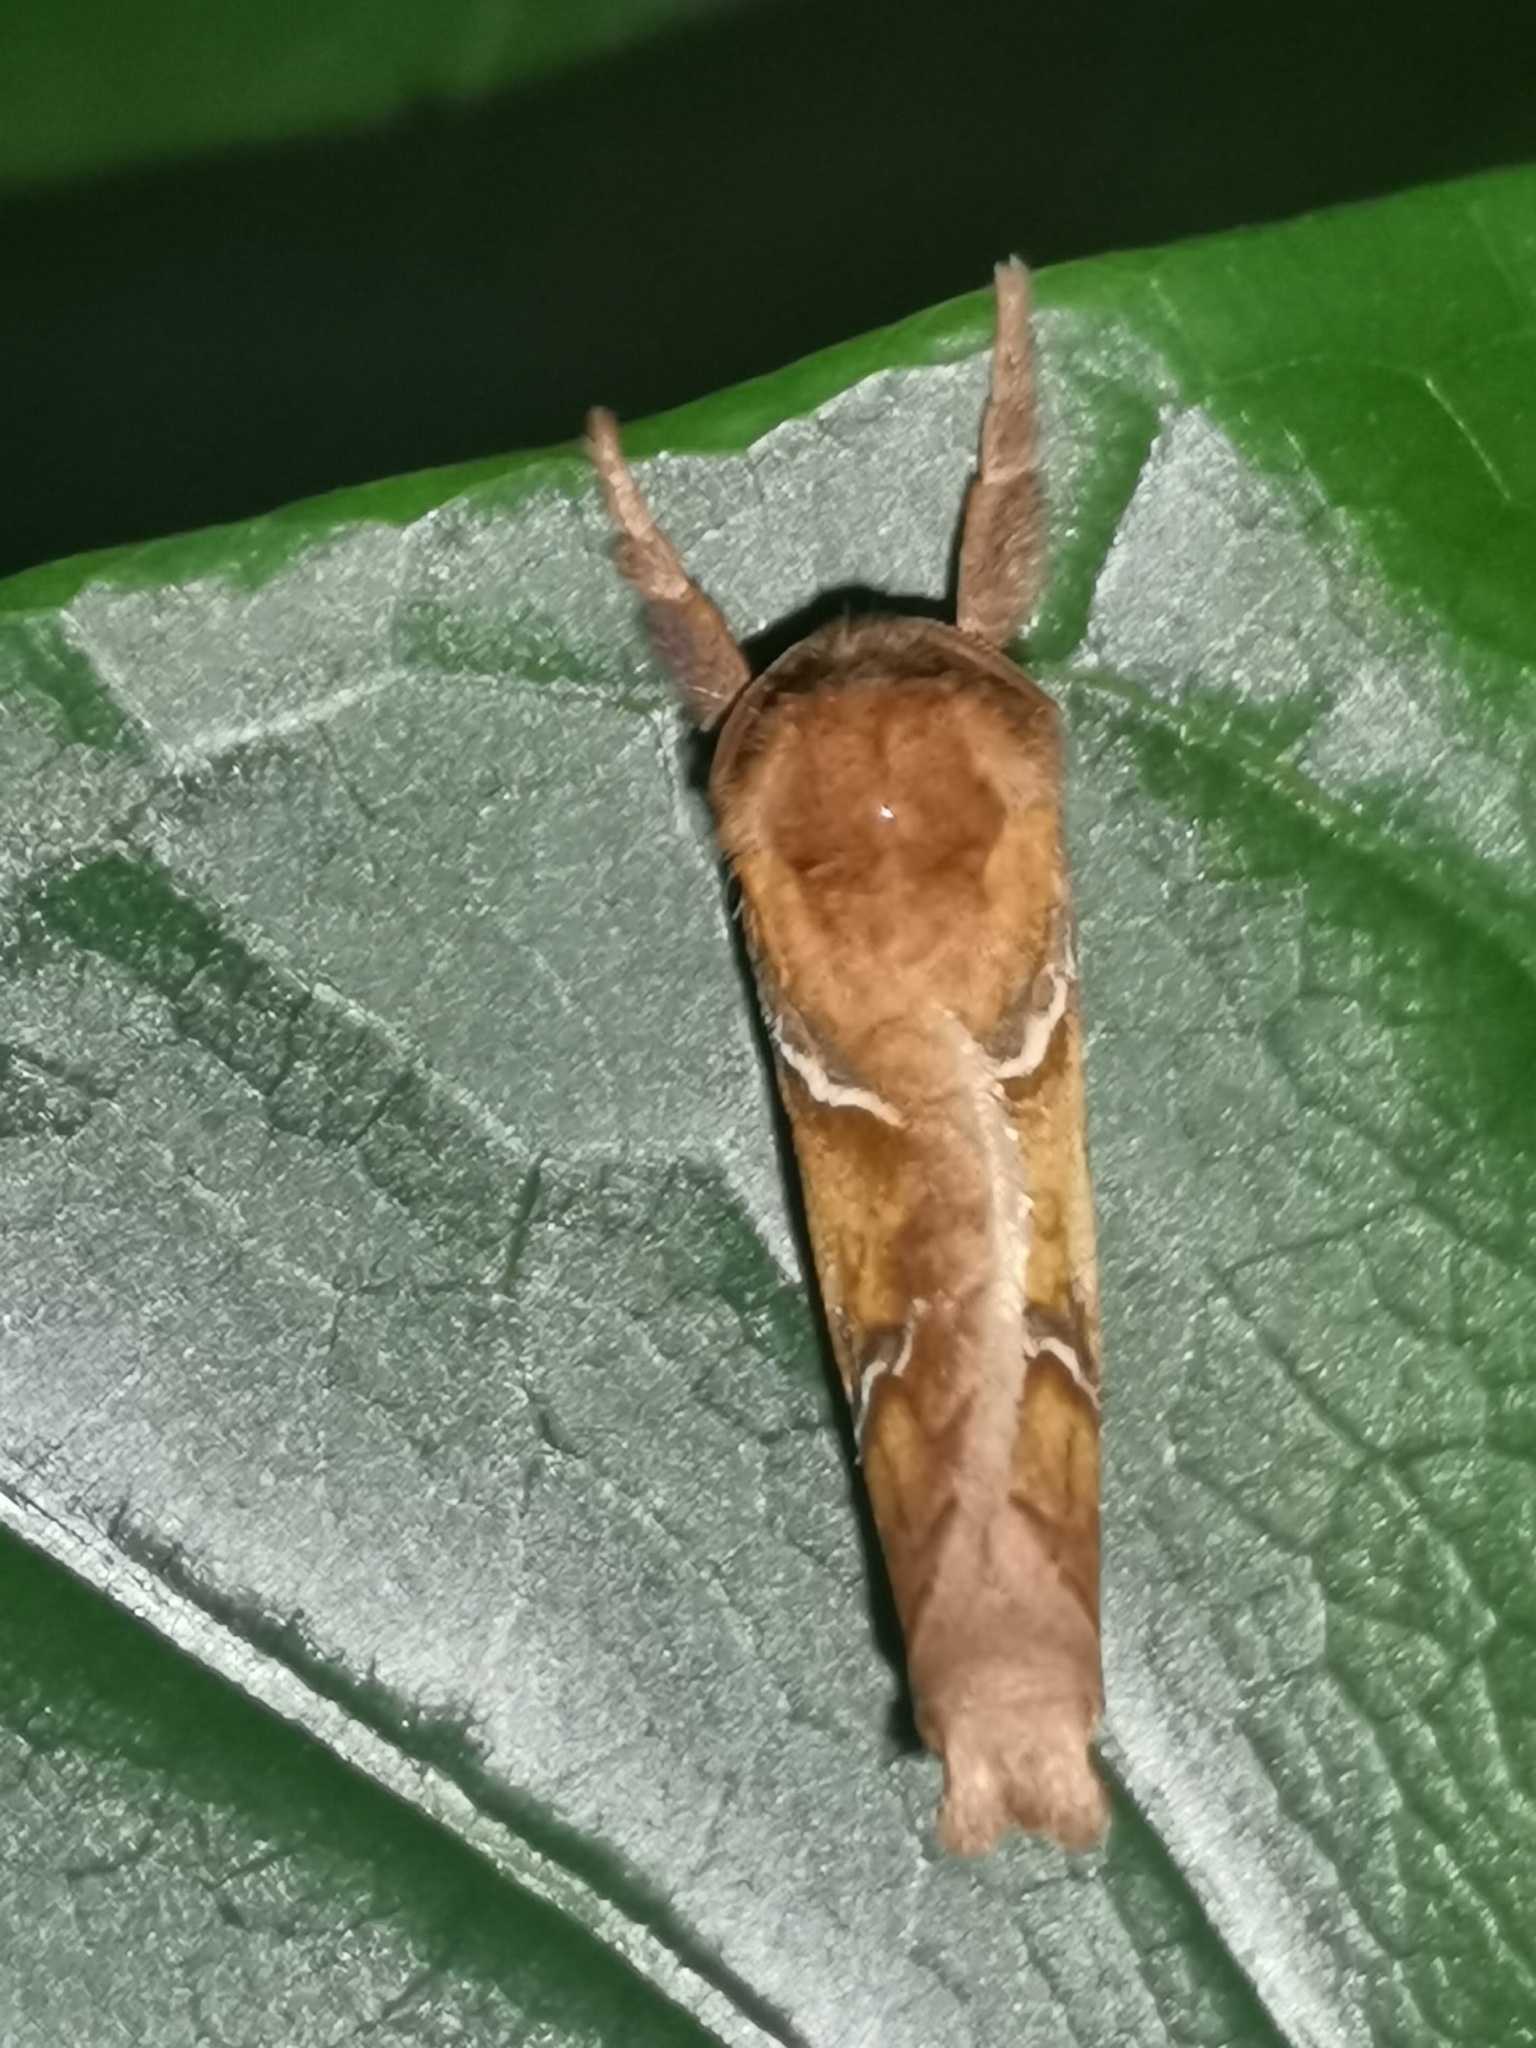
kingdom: Animalia
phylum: Arthropoda
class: Insecta
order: Lepidoptera
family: Hepialidae
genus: Triodia
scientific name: Triodia sylvina
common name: Orange swift
